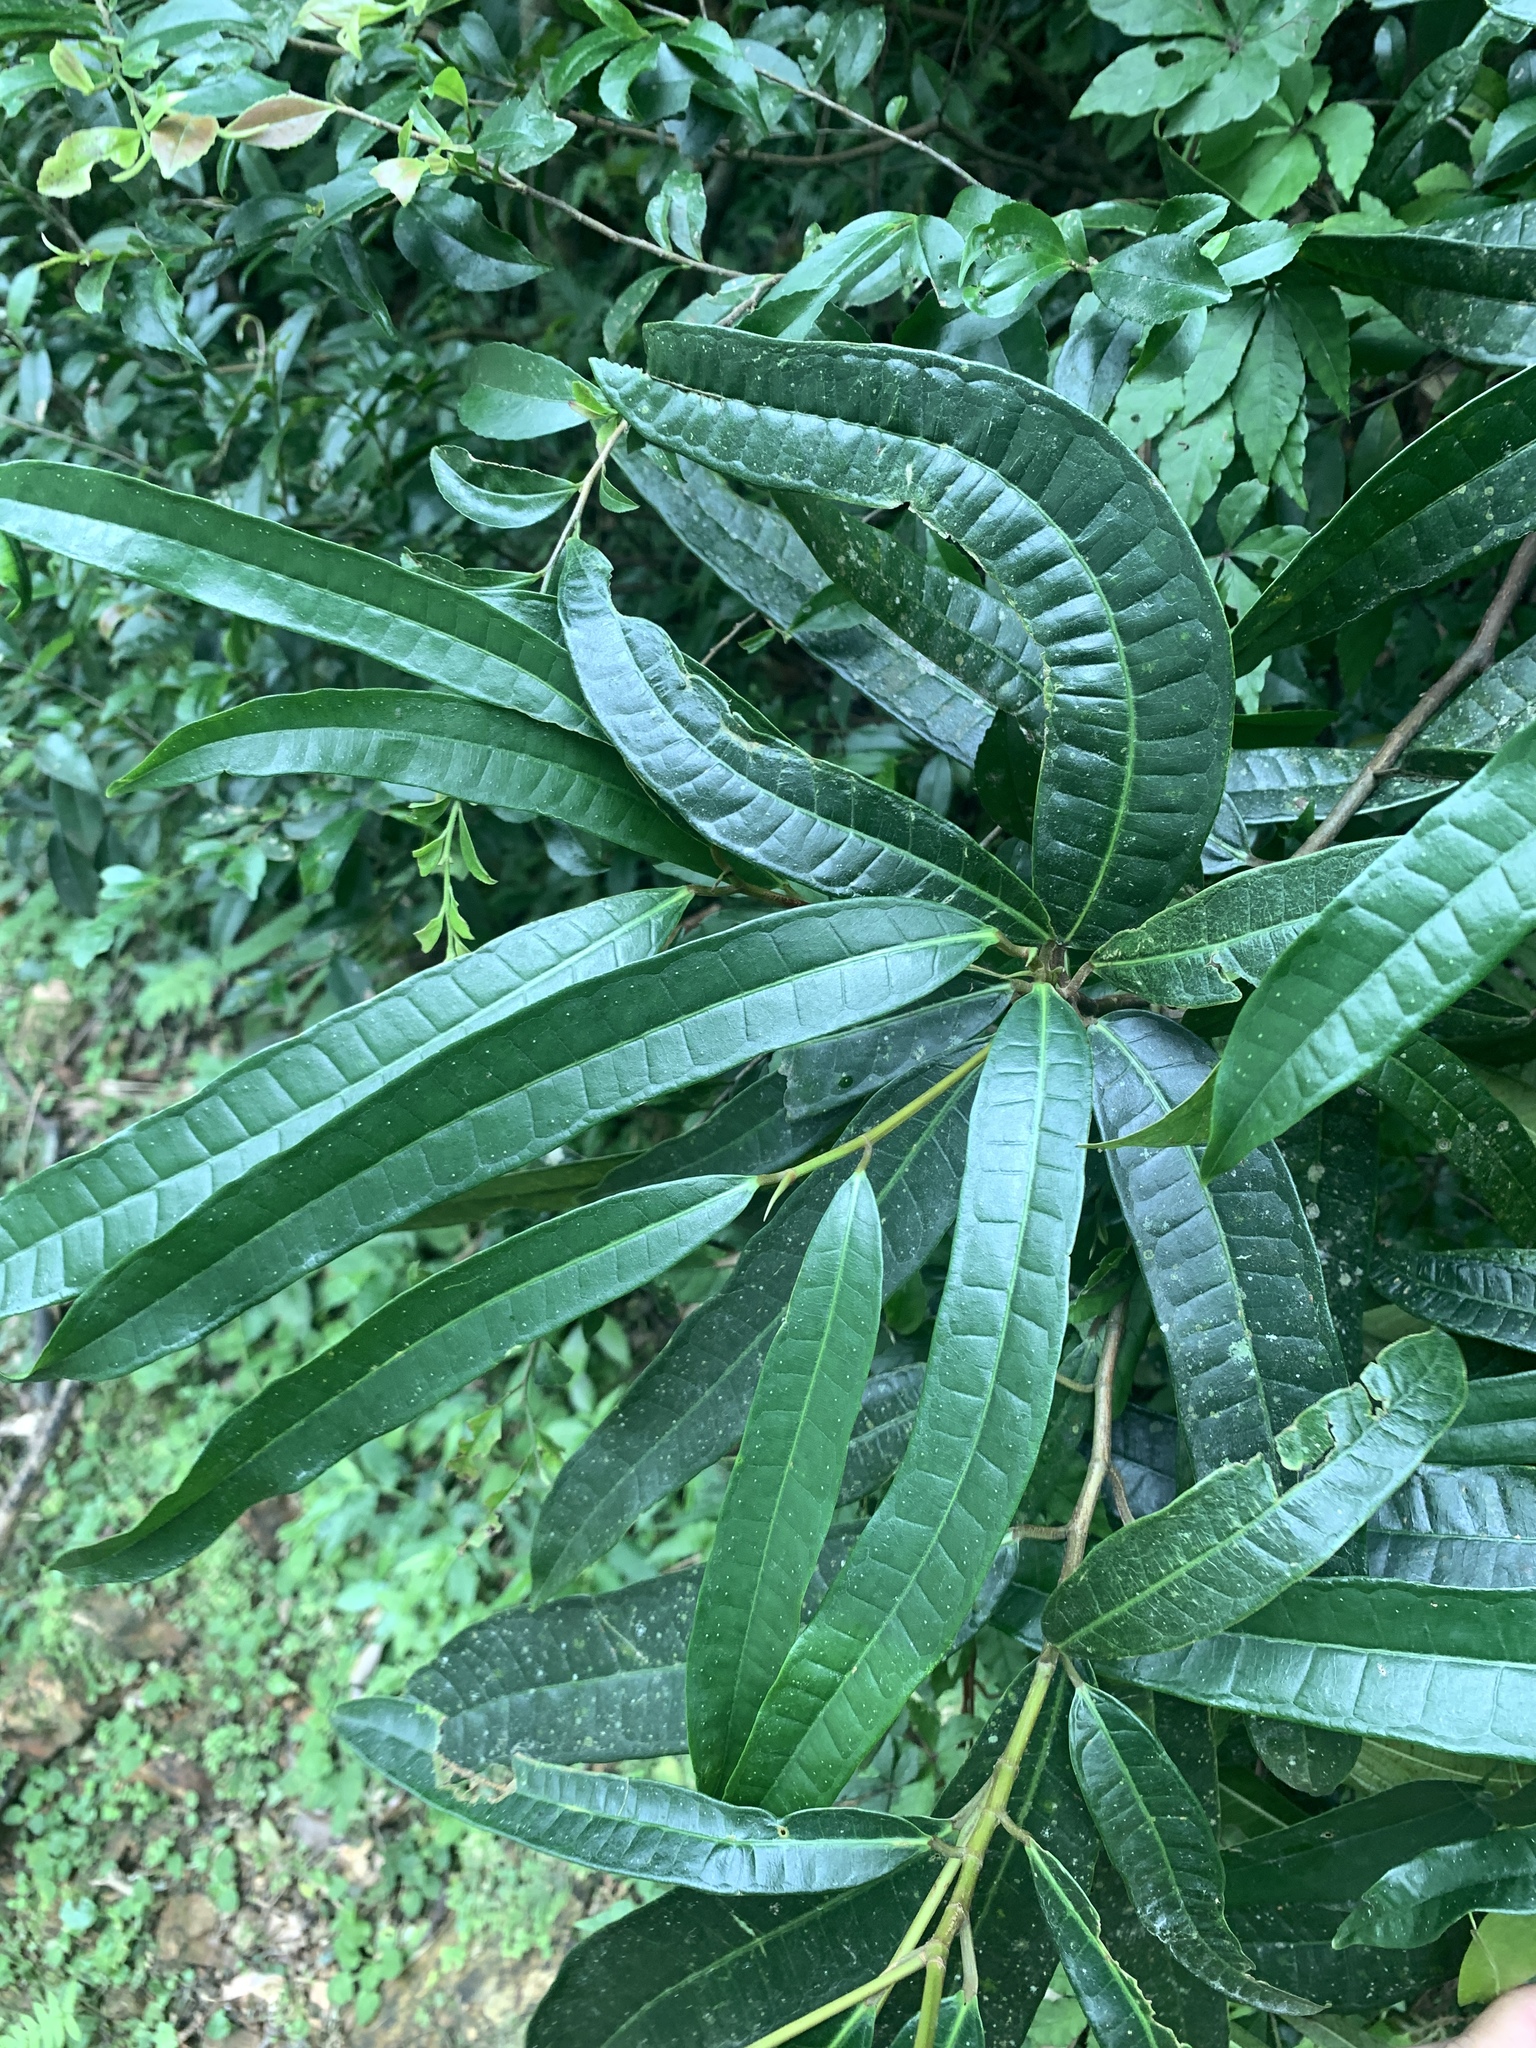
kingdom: Plantae
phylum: Tracheophyta
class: Magnoliopsida
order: Rosales
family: Moraceae
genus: Ficus
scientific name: Ficus nervosa
